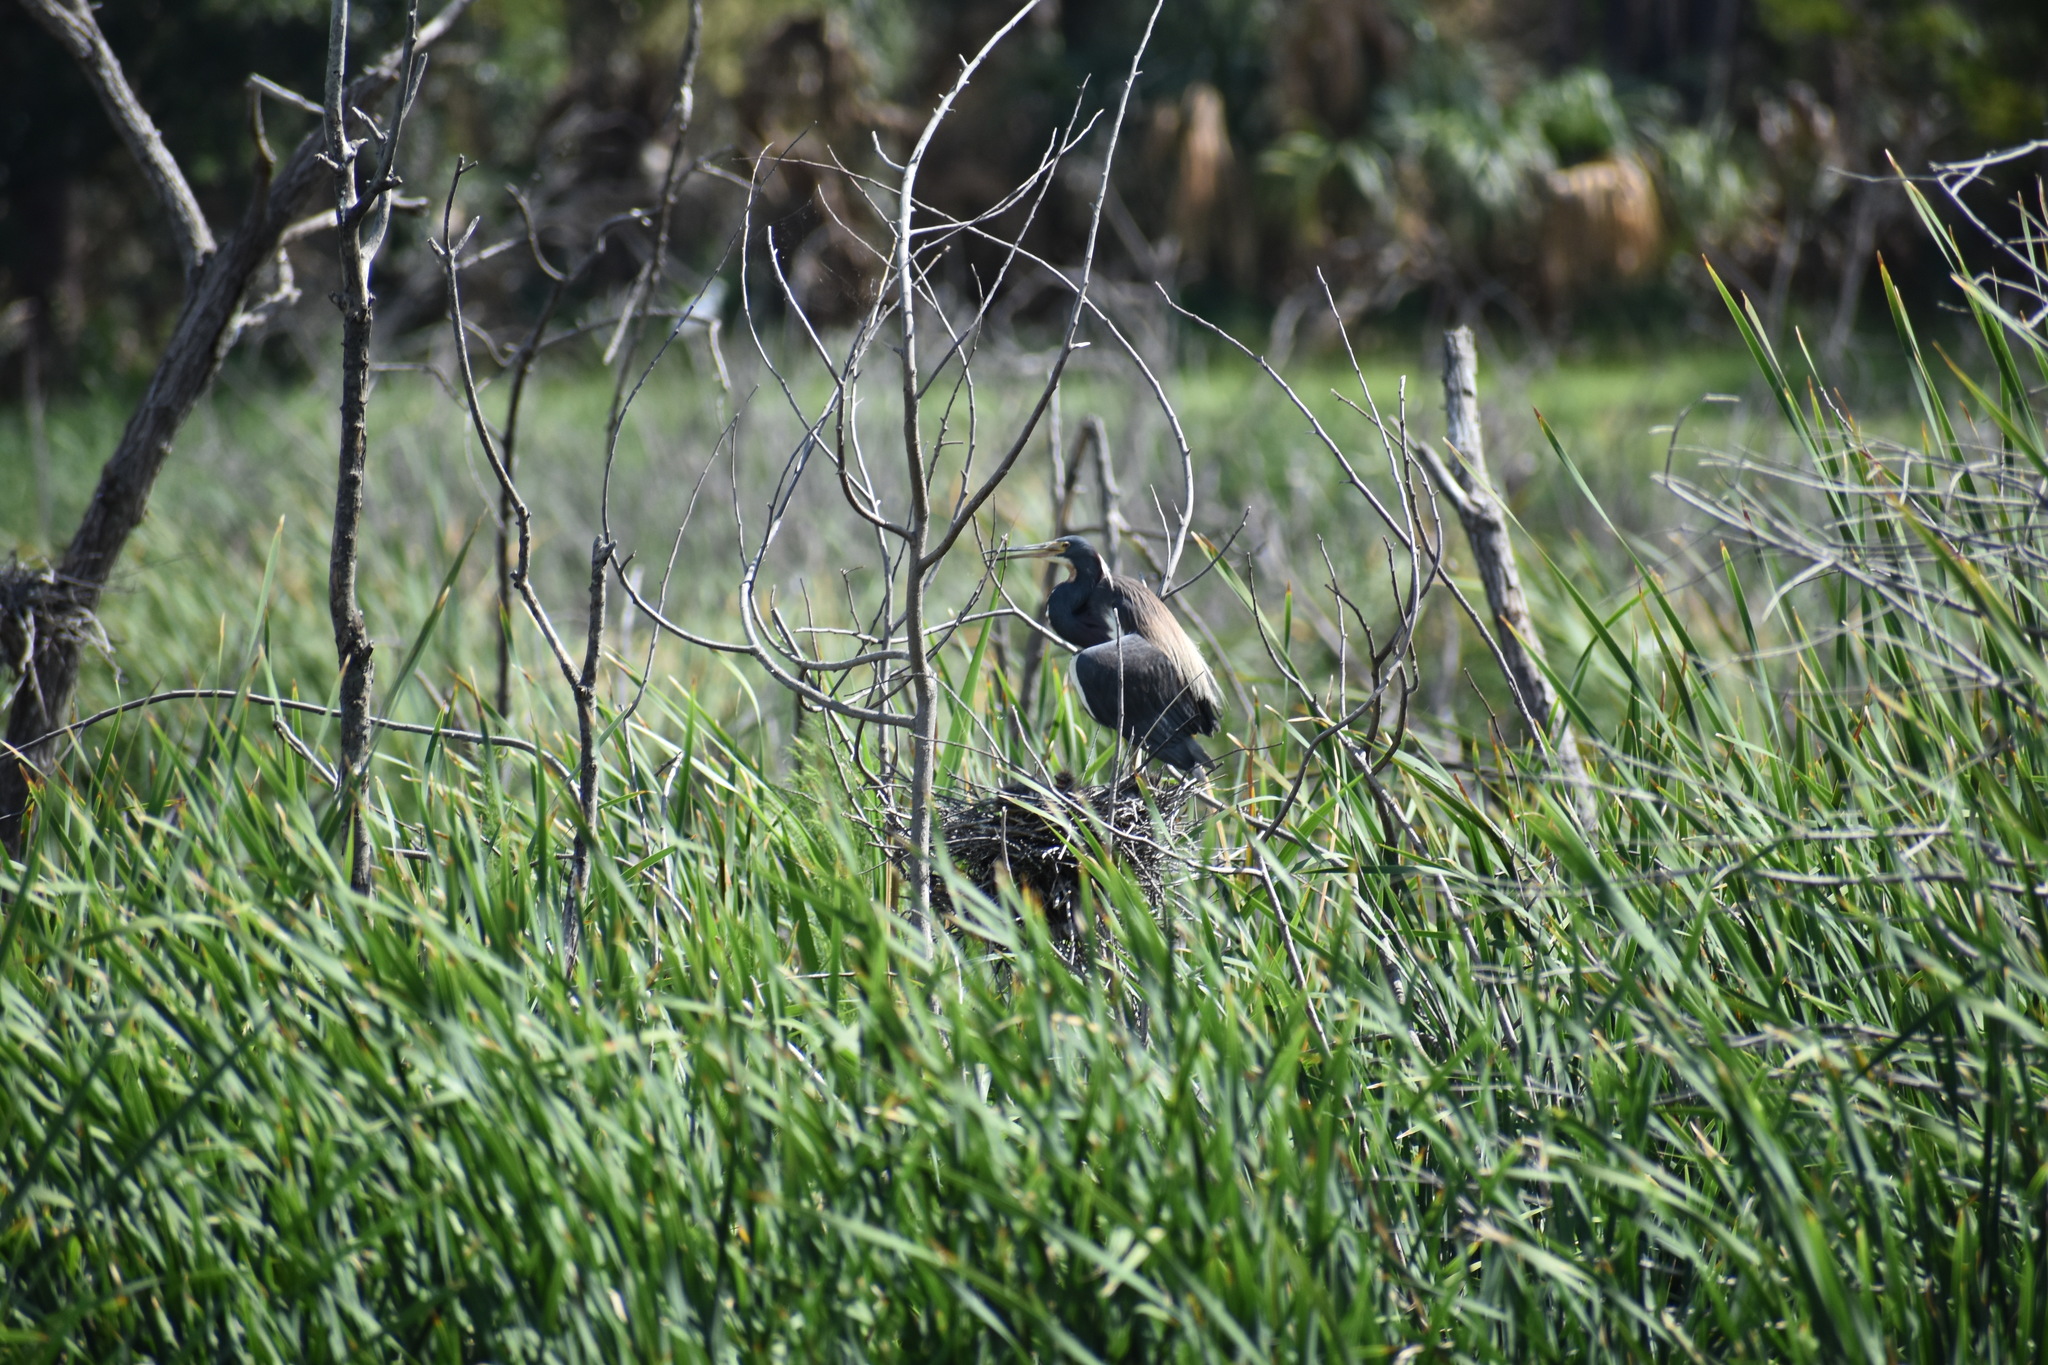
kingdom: Animalia
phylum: Chordata
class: Aves
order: Pelecaniformes
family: Ardeidae
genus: Egretta
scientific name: Egretta tricolor
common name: Tricolored heron
